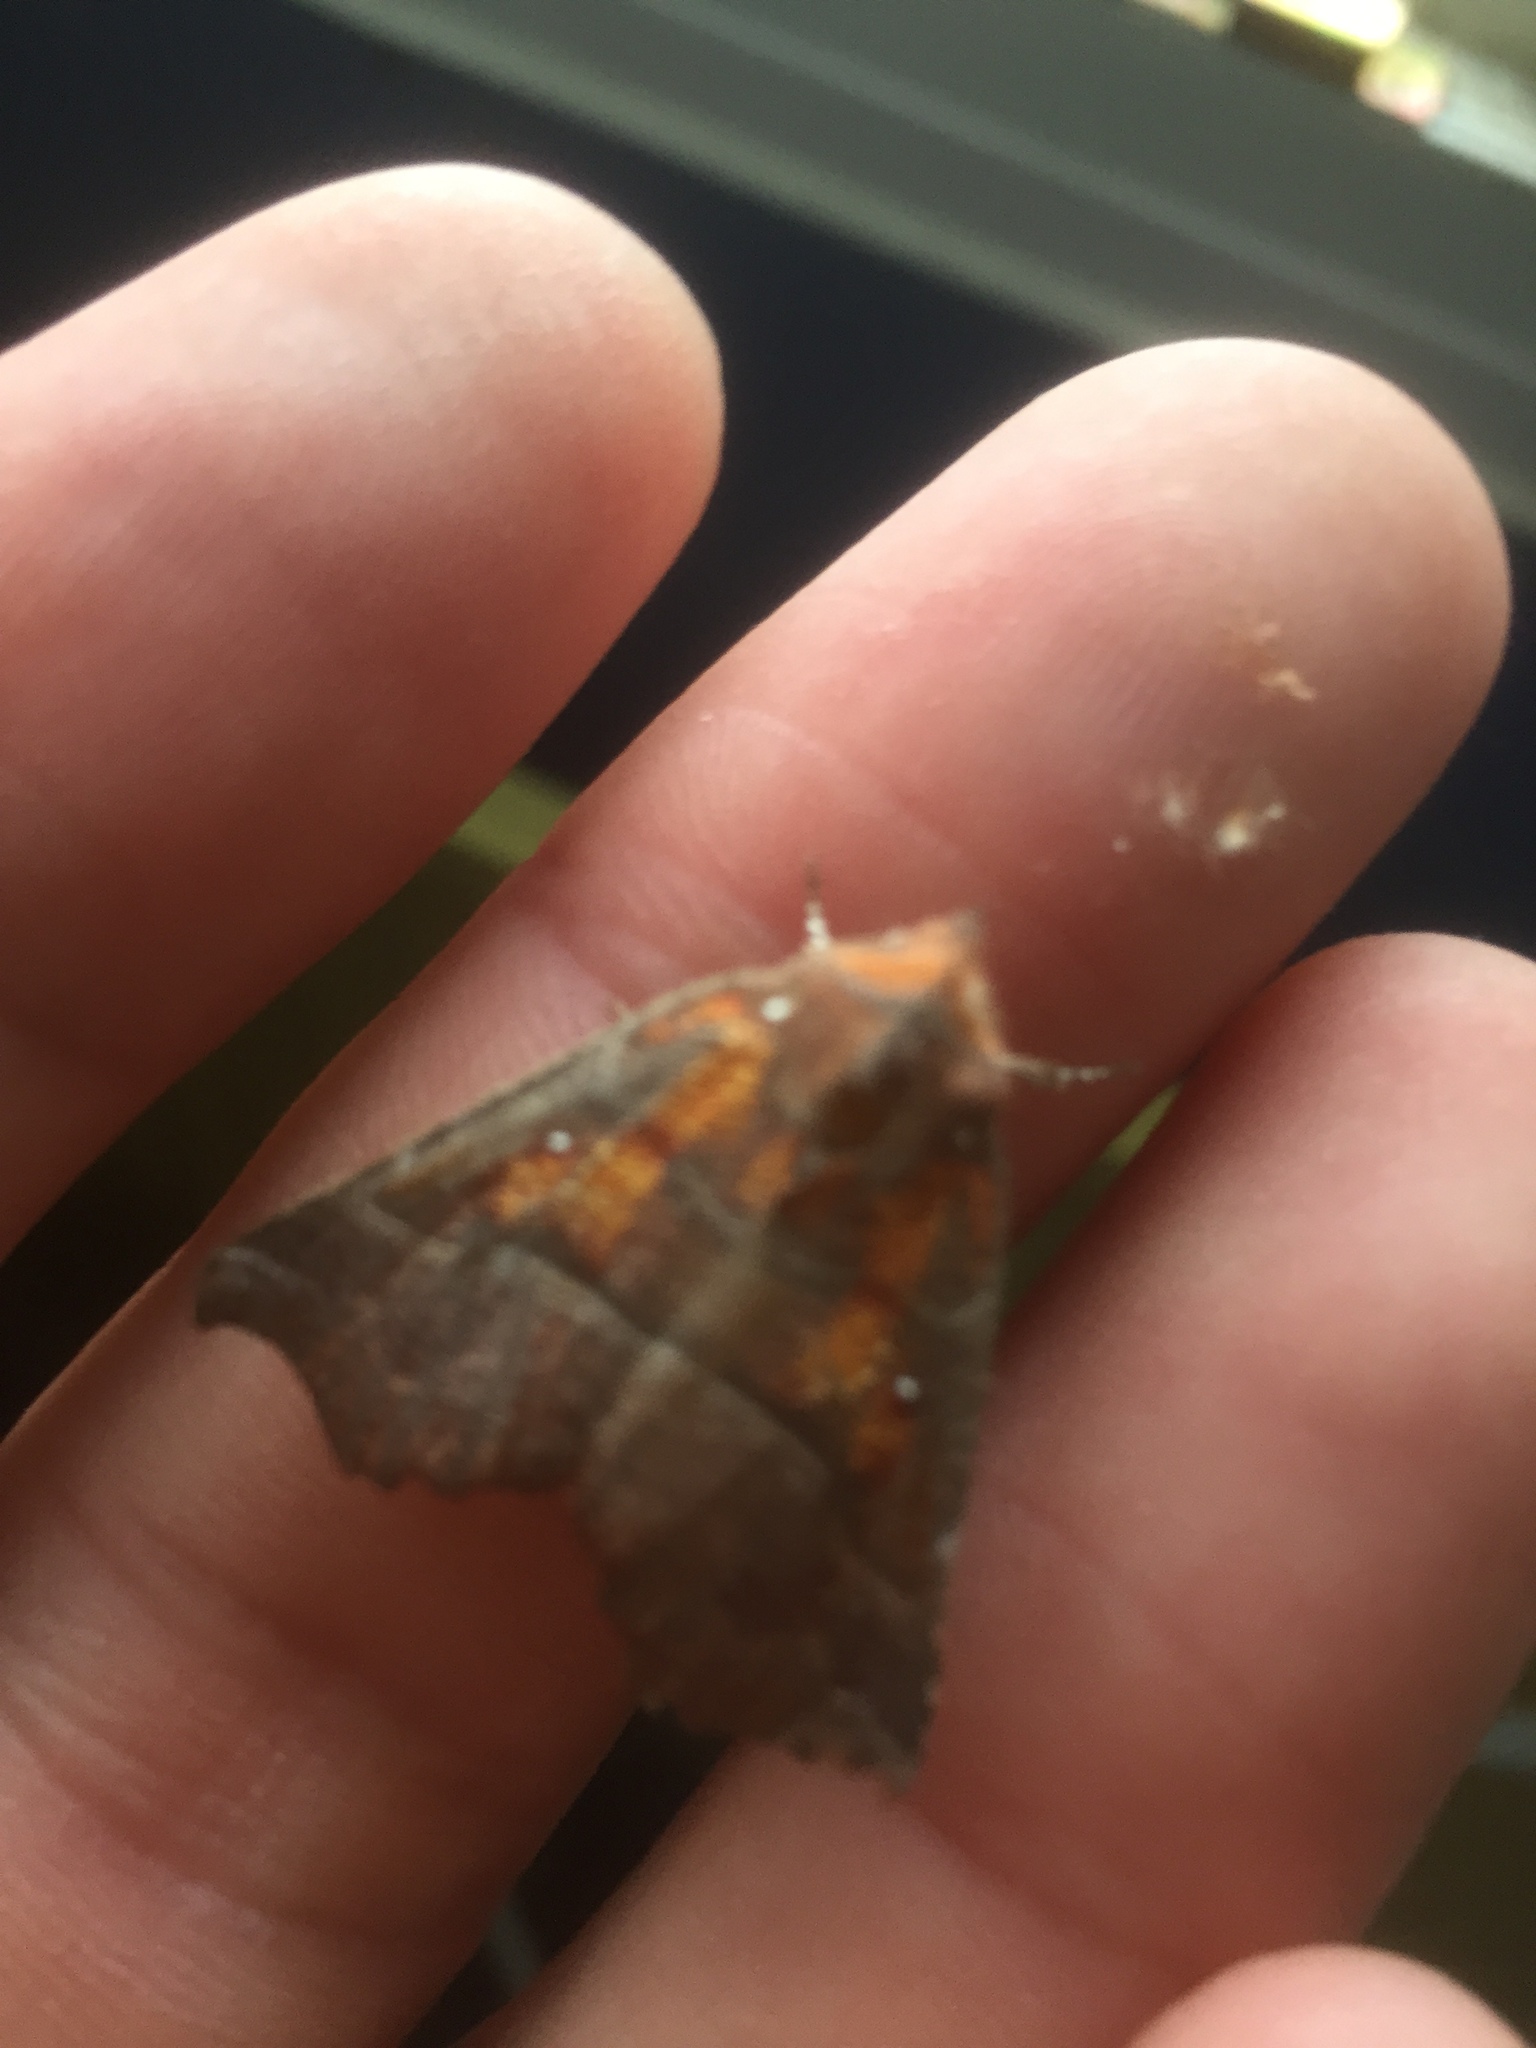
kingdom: Animalia
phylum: Arthropoda
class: Insecta
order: Lepidoptera
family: Erebidae
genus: Scoliopteryx
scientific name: Scoliopteryx libatrix
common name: Herald
